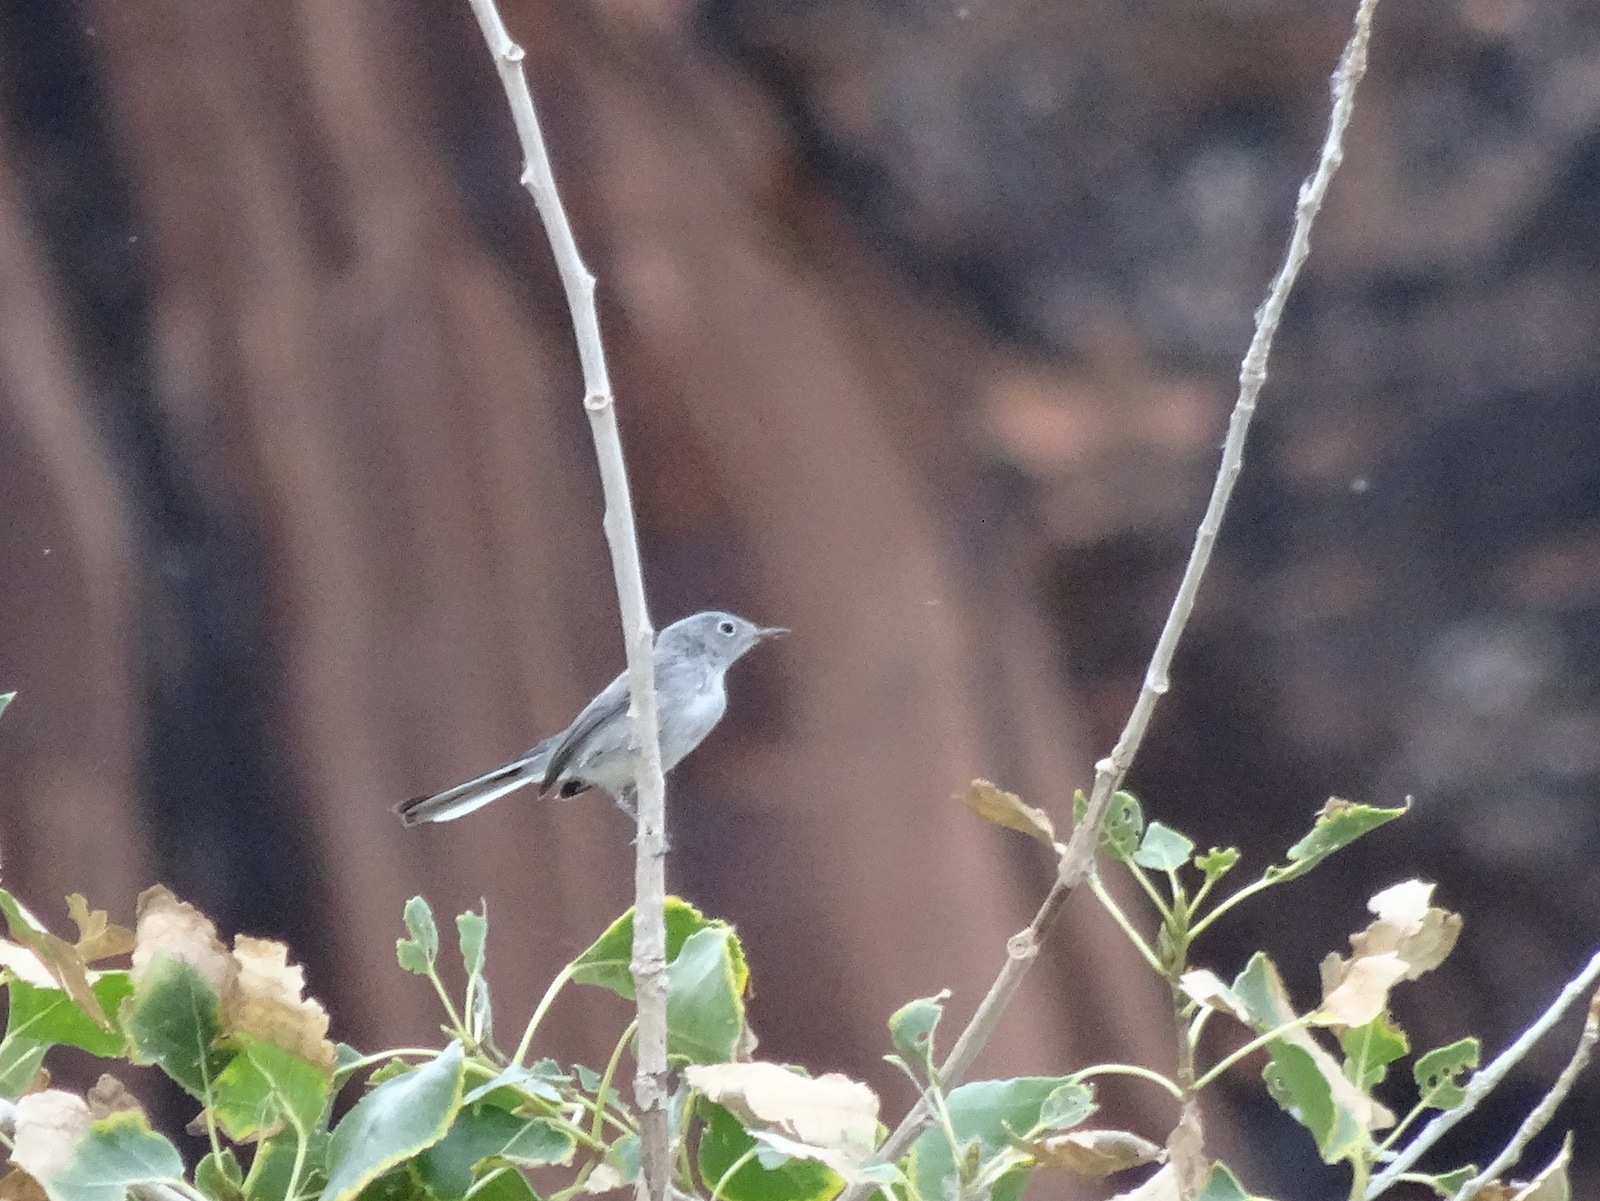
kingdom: Animalia
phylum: Chordata
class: Aves
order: Passeriformes
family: Polioptilidae
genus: Polioptila
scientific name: Polioptila caerulea
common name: Blue-gray gnatcatcher
